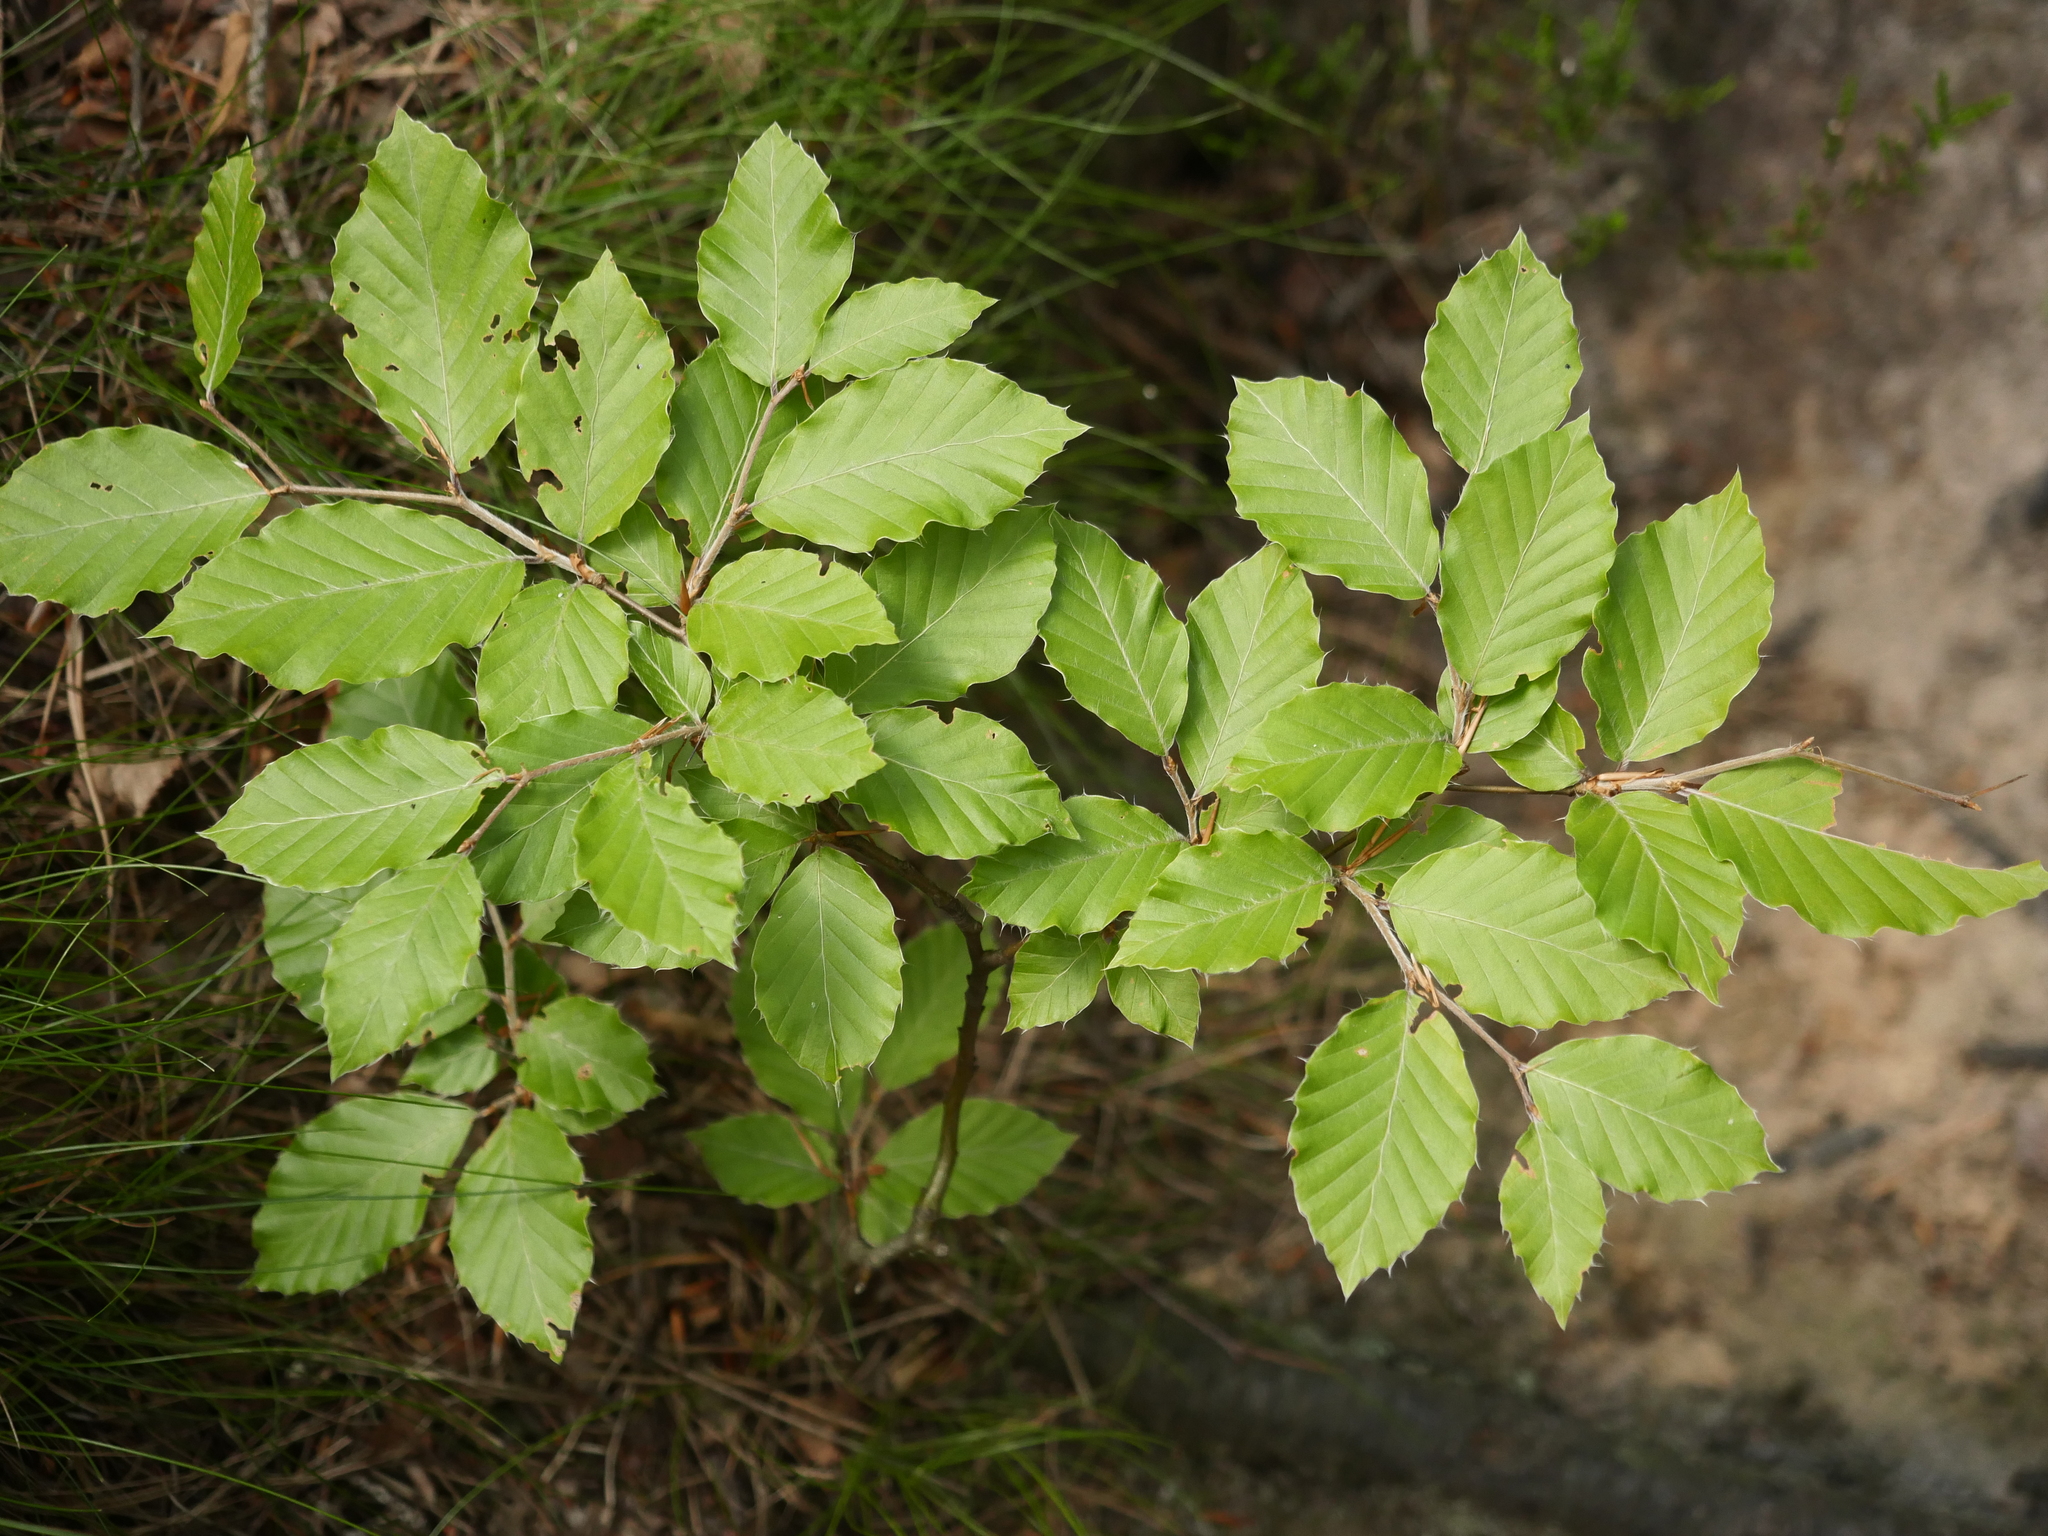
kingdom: Plantae
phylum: Tracheophyta
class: Magnoliopsida
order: Fagales
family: Fagaceae
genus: Fagus
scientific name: Fagus sylvatica
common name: Beech
